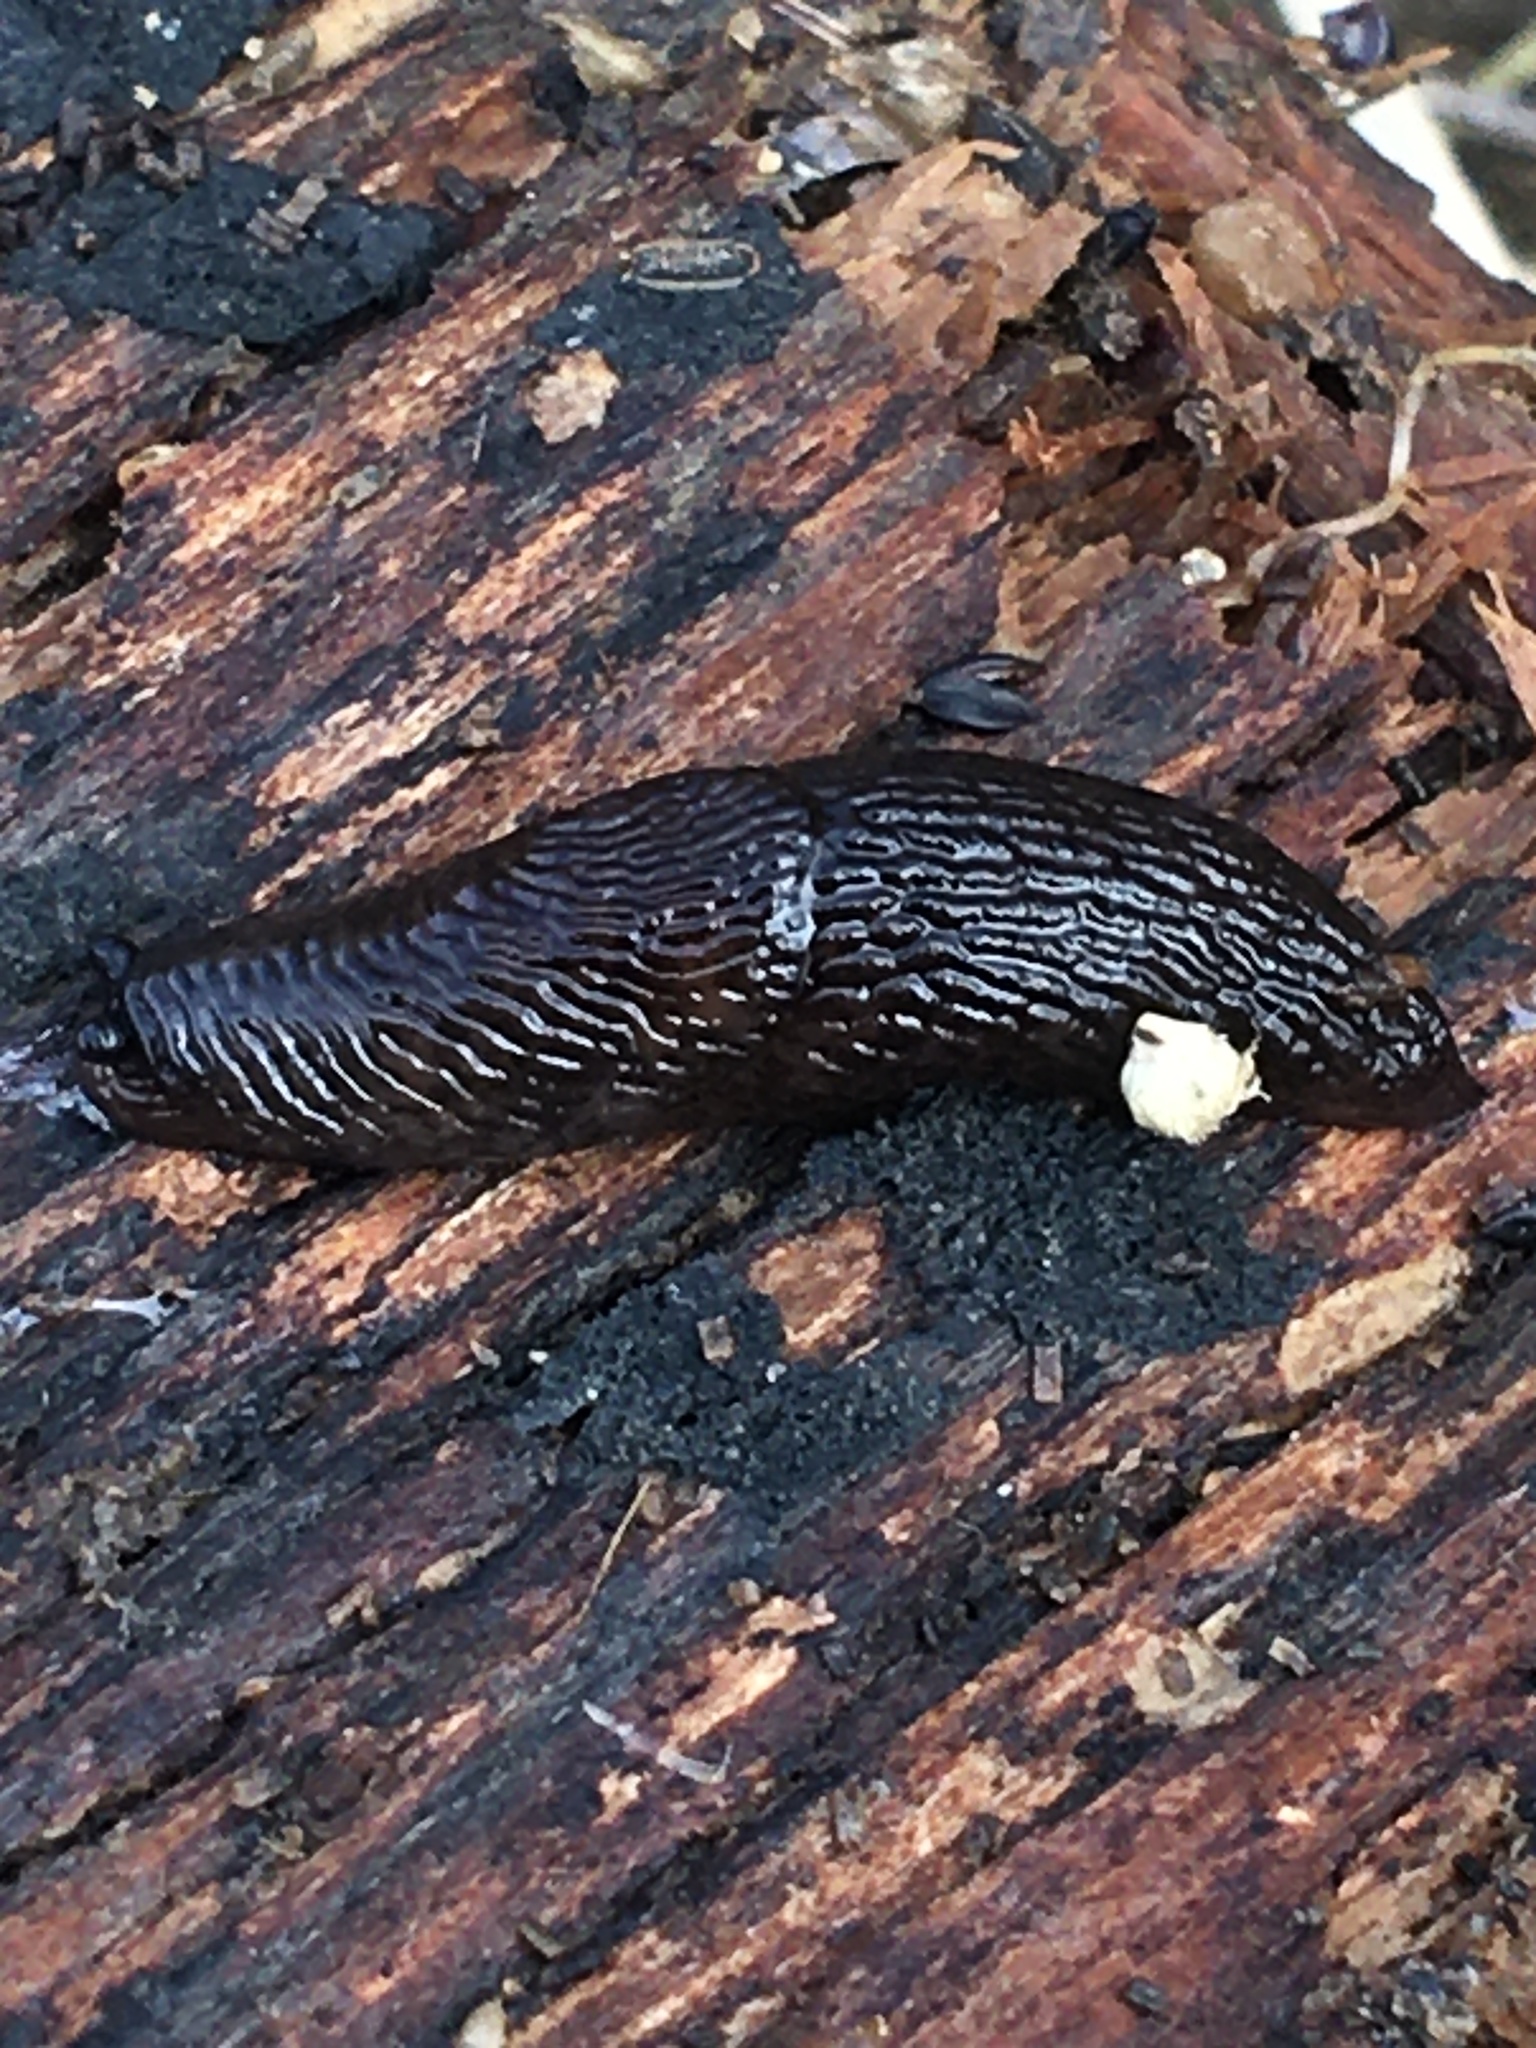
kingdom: Animalia
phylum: Mollusca
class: Gastropoda
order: Stylommatophora
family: Agriolimacidae
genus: Deroceras
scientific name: Deroceras laeve
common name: Marsh slug
